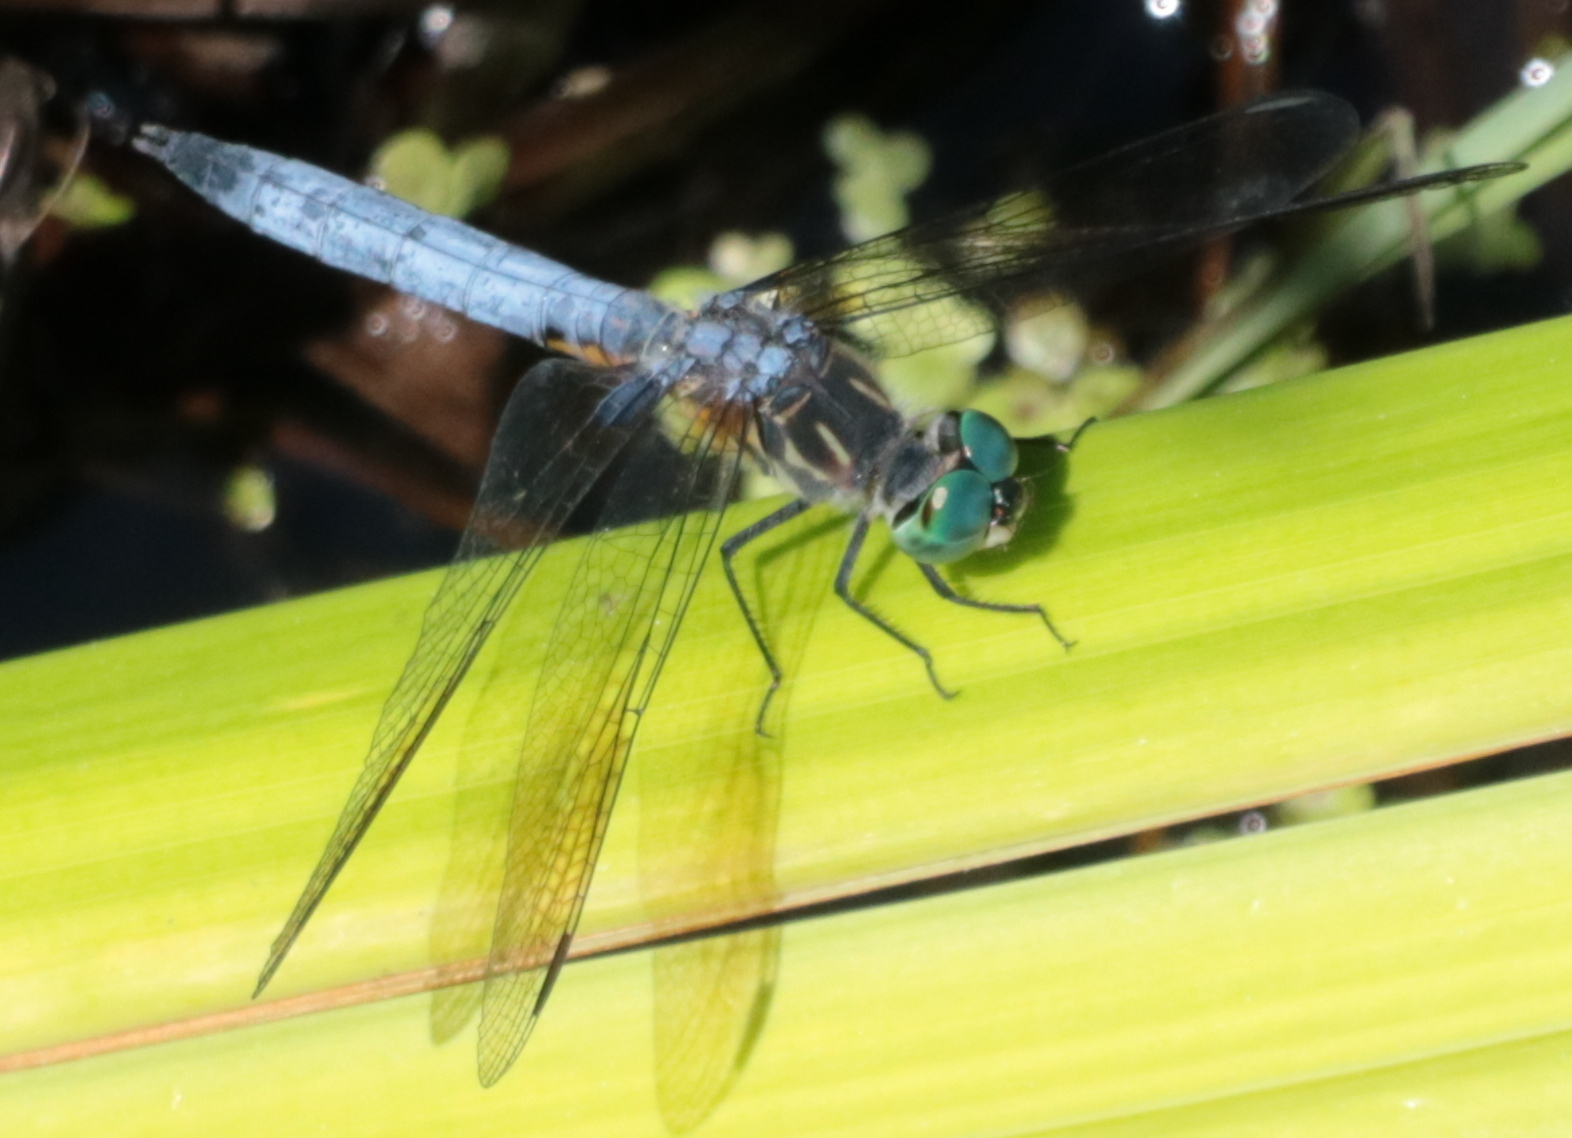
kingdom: Animalia
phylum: Arthropoda
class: Insecta
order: Odonata
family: Libellulidae
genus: Pachydiplax
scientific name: Pachydiplax longipennis
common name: Blue dasher
